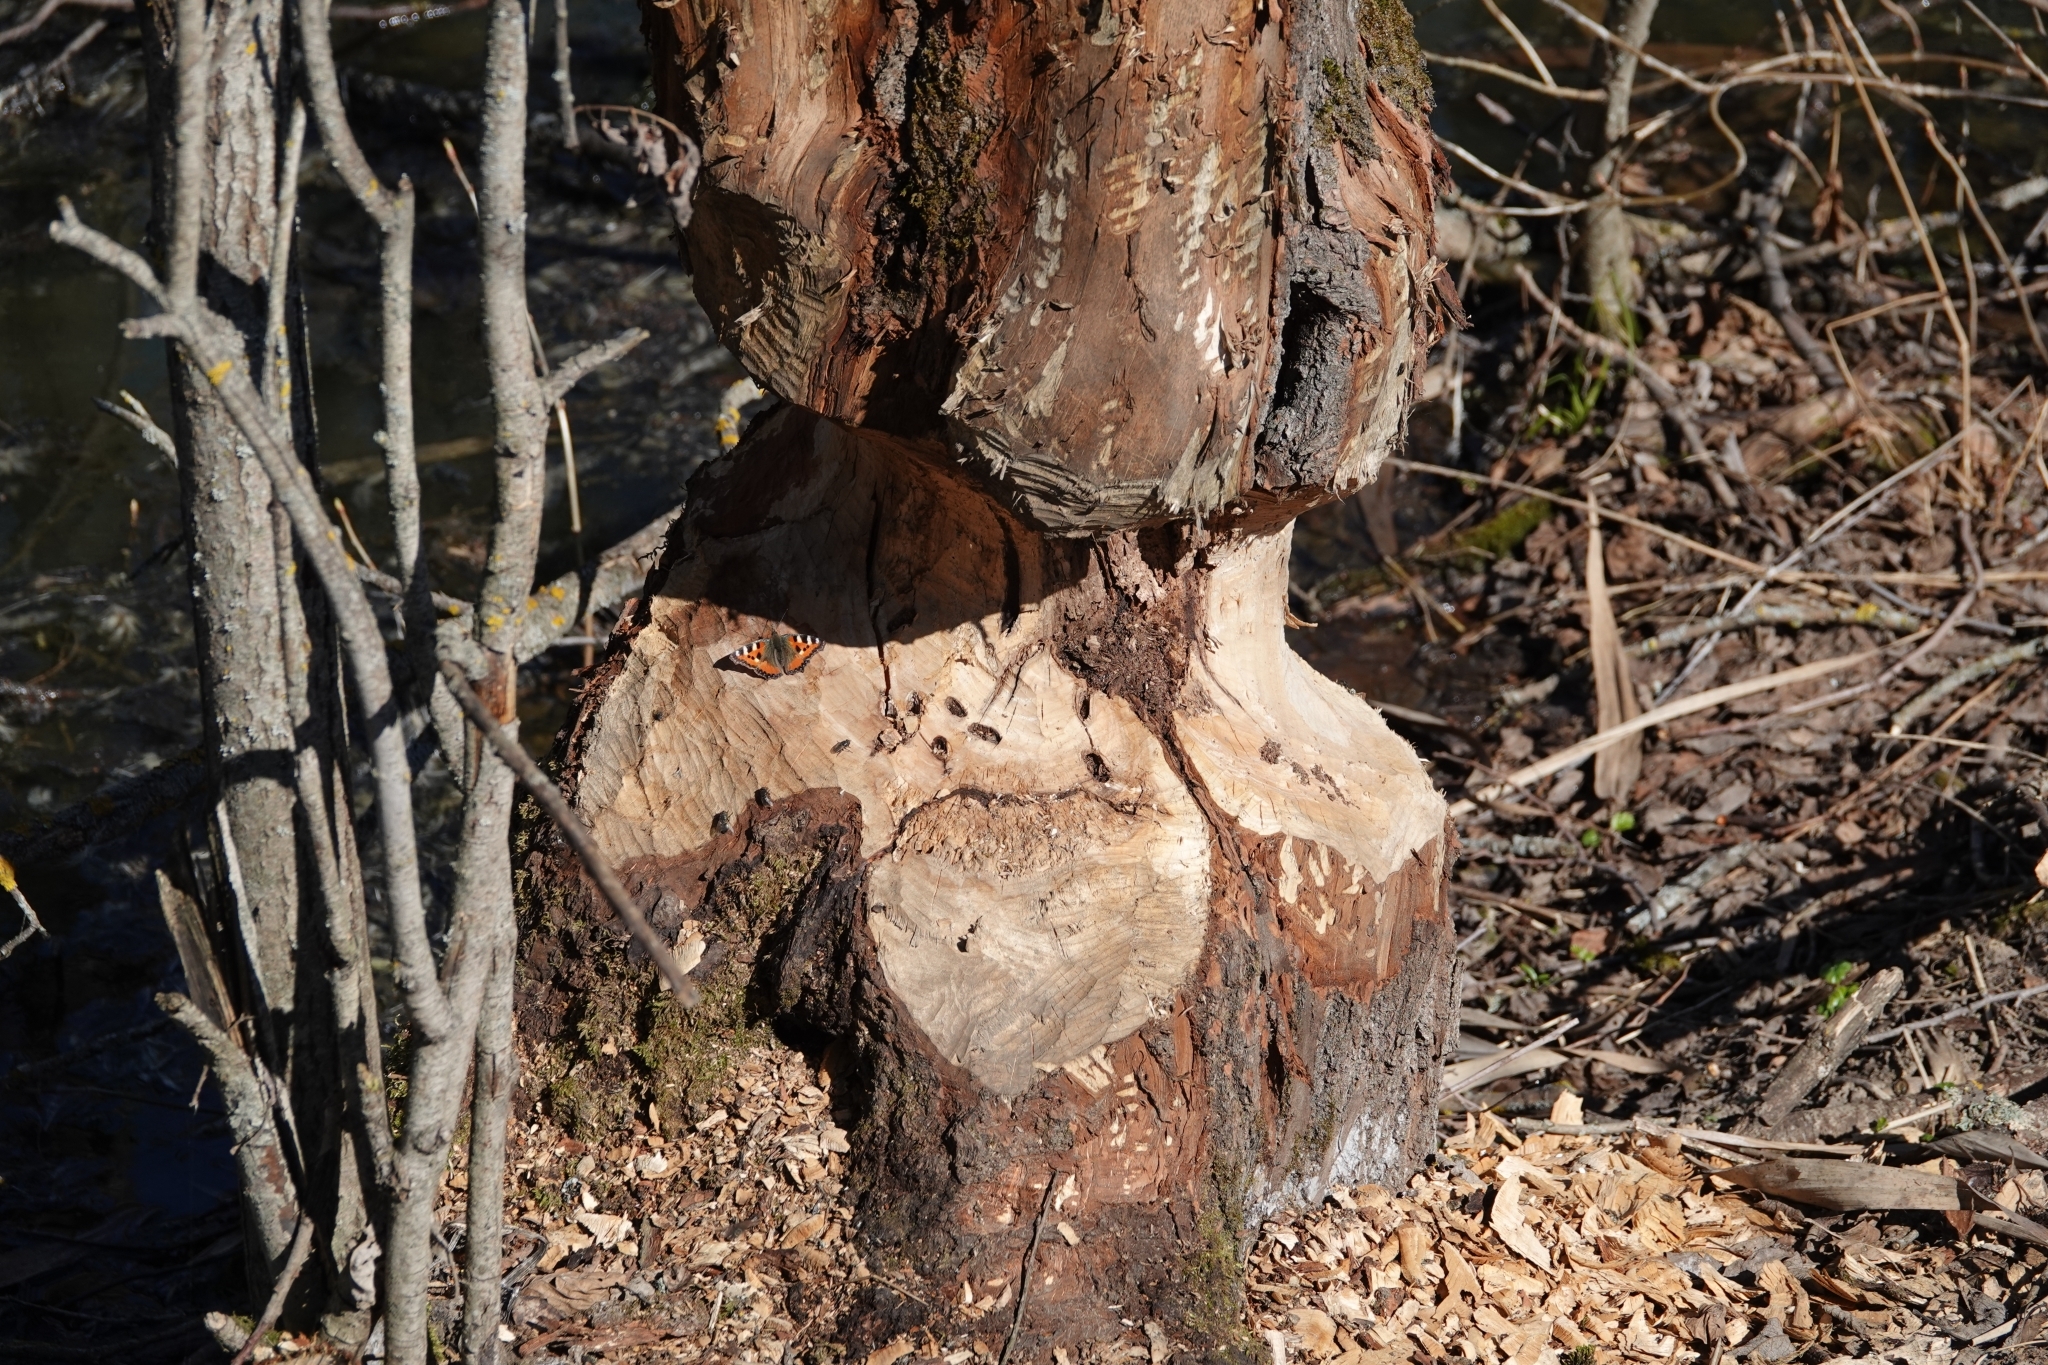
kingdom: Animalia
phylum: Chordata
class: Mammalia
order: Rodentia
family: Castoridae
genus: Castor
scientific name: Castor fiber
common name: Eurasian beaver
